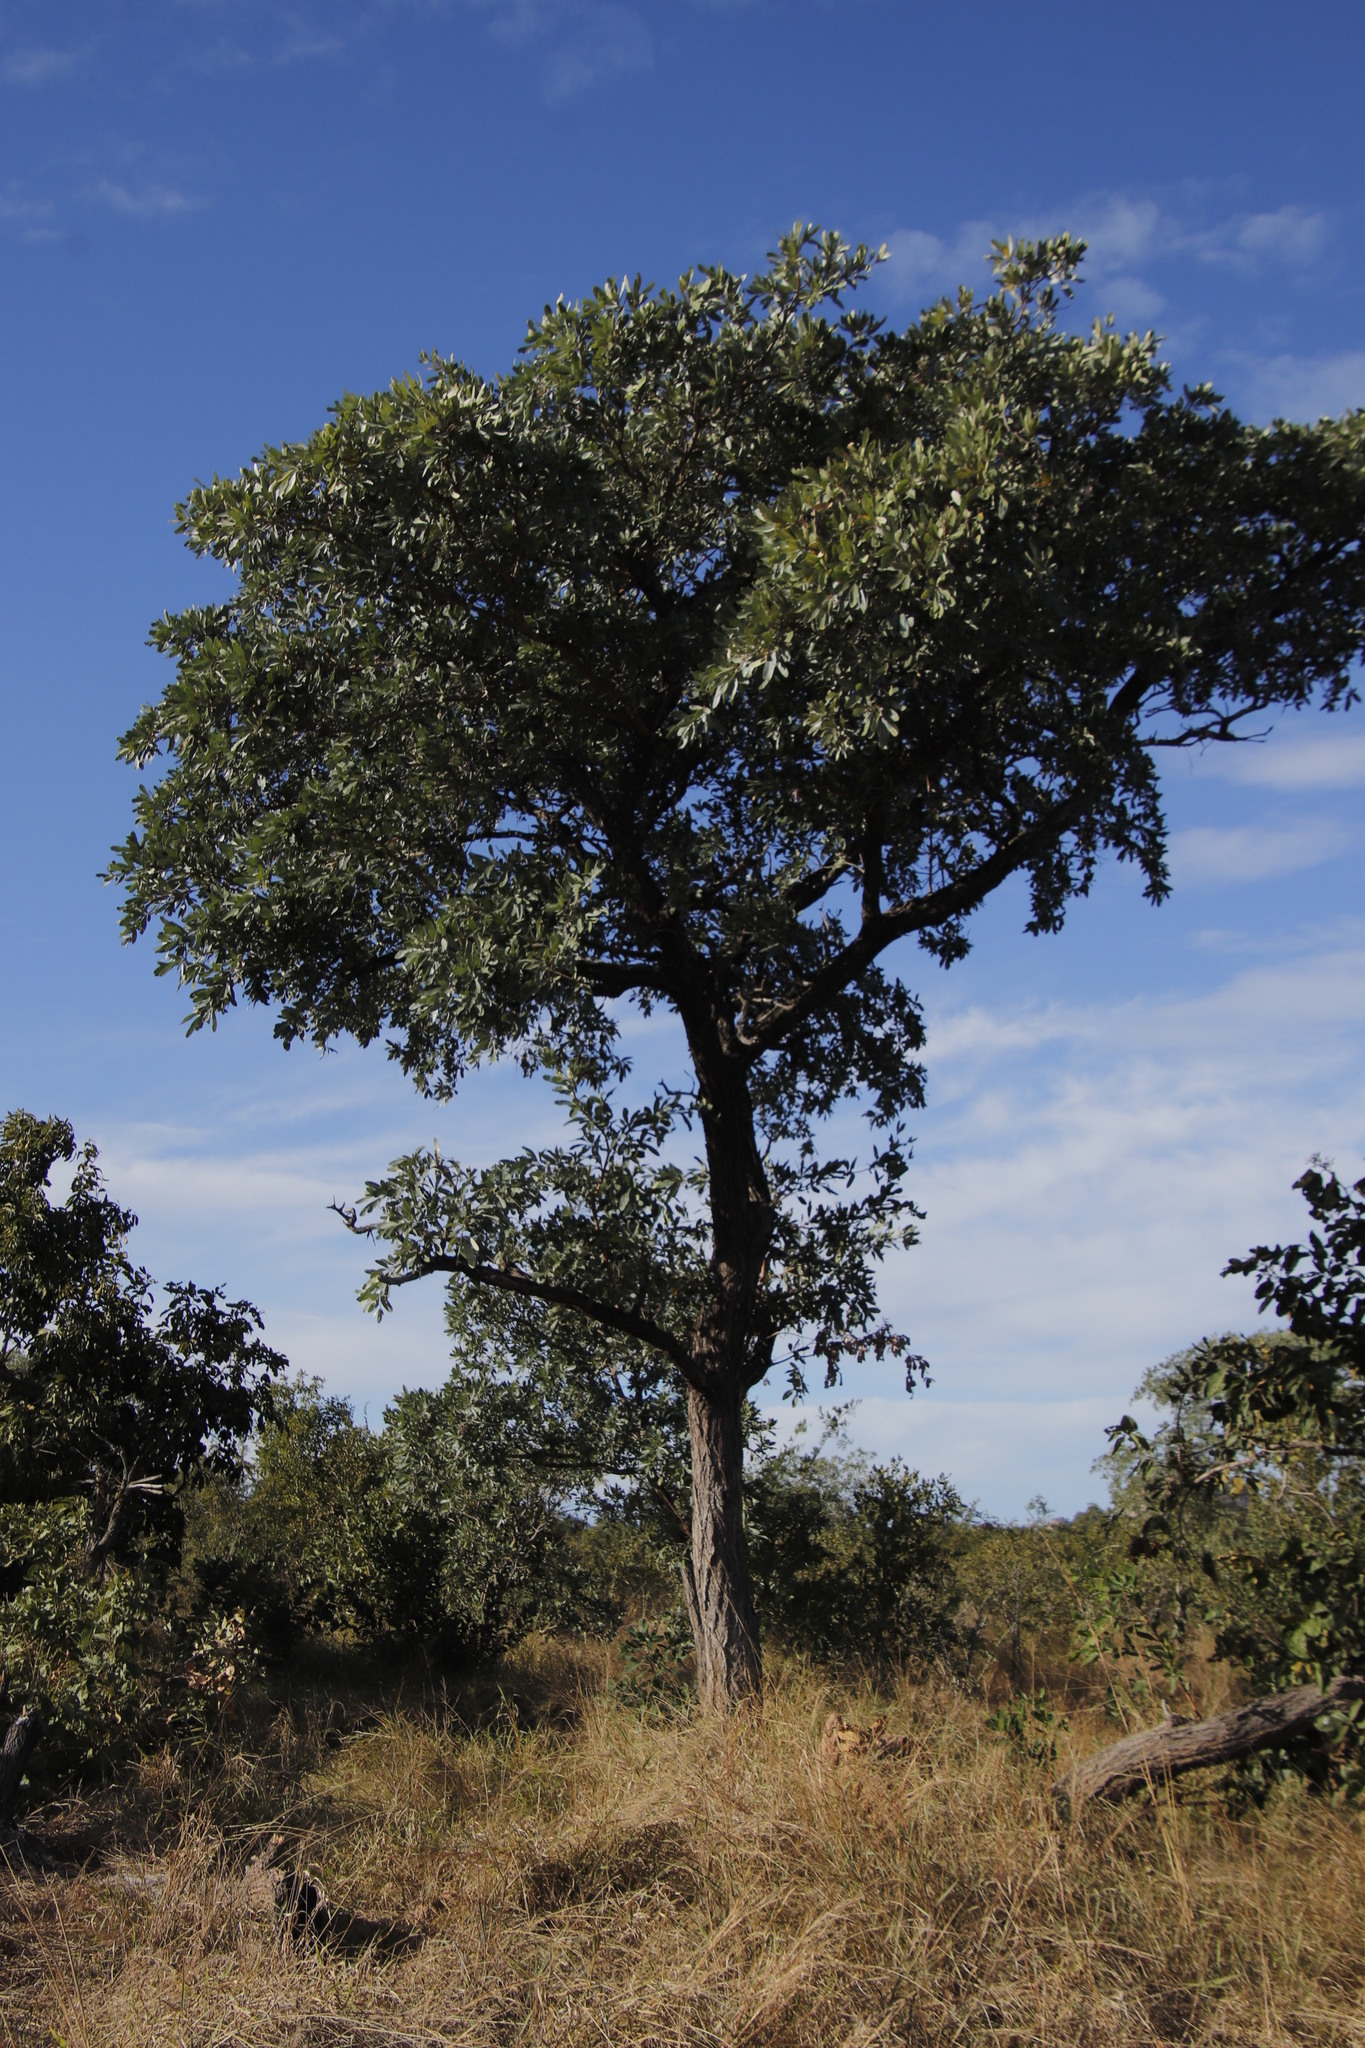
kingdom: Plantae
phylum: Tracheophyta
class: Magnoliopsida
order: Myrtales
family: Combretaceae
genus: Terminalia
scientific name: Terminalia sericea
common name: Clusterleaf
